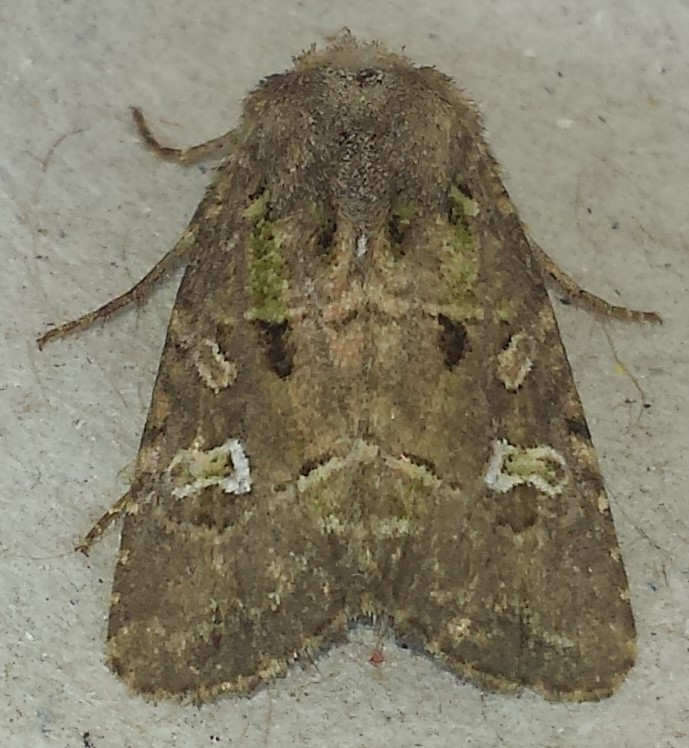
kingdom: Animalia
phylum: Arthropoda
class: Insecta
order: Lepidoptera
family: Noctuidae
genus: Lacinipolia
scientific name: Lacinipolia renigera
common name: Kidney-spotted minor
